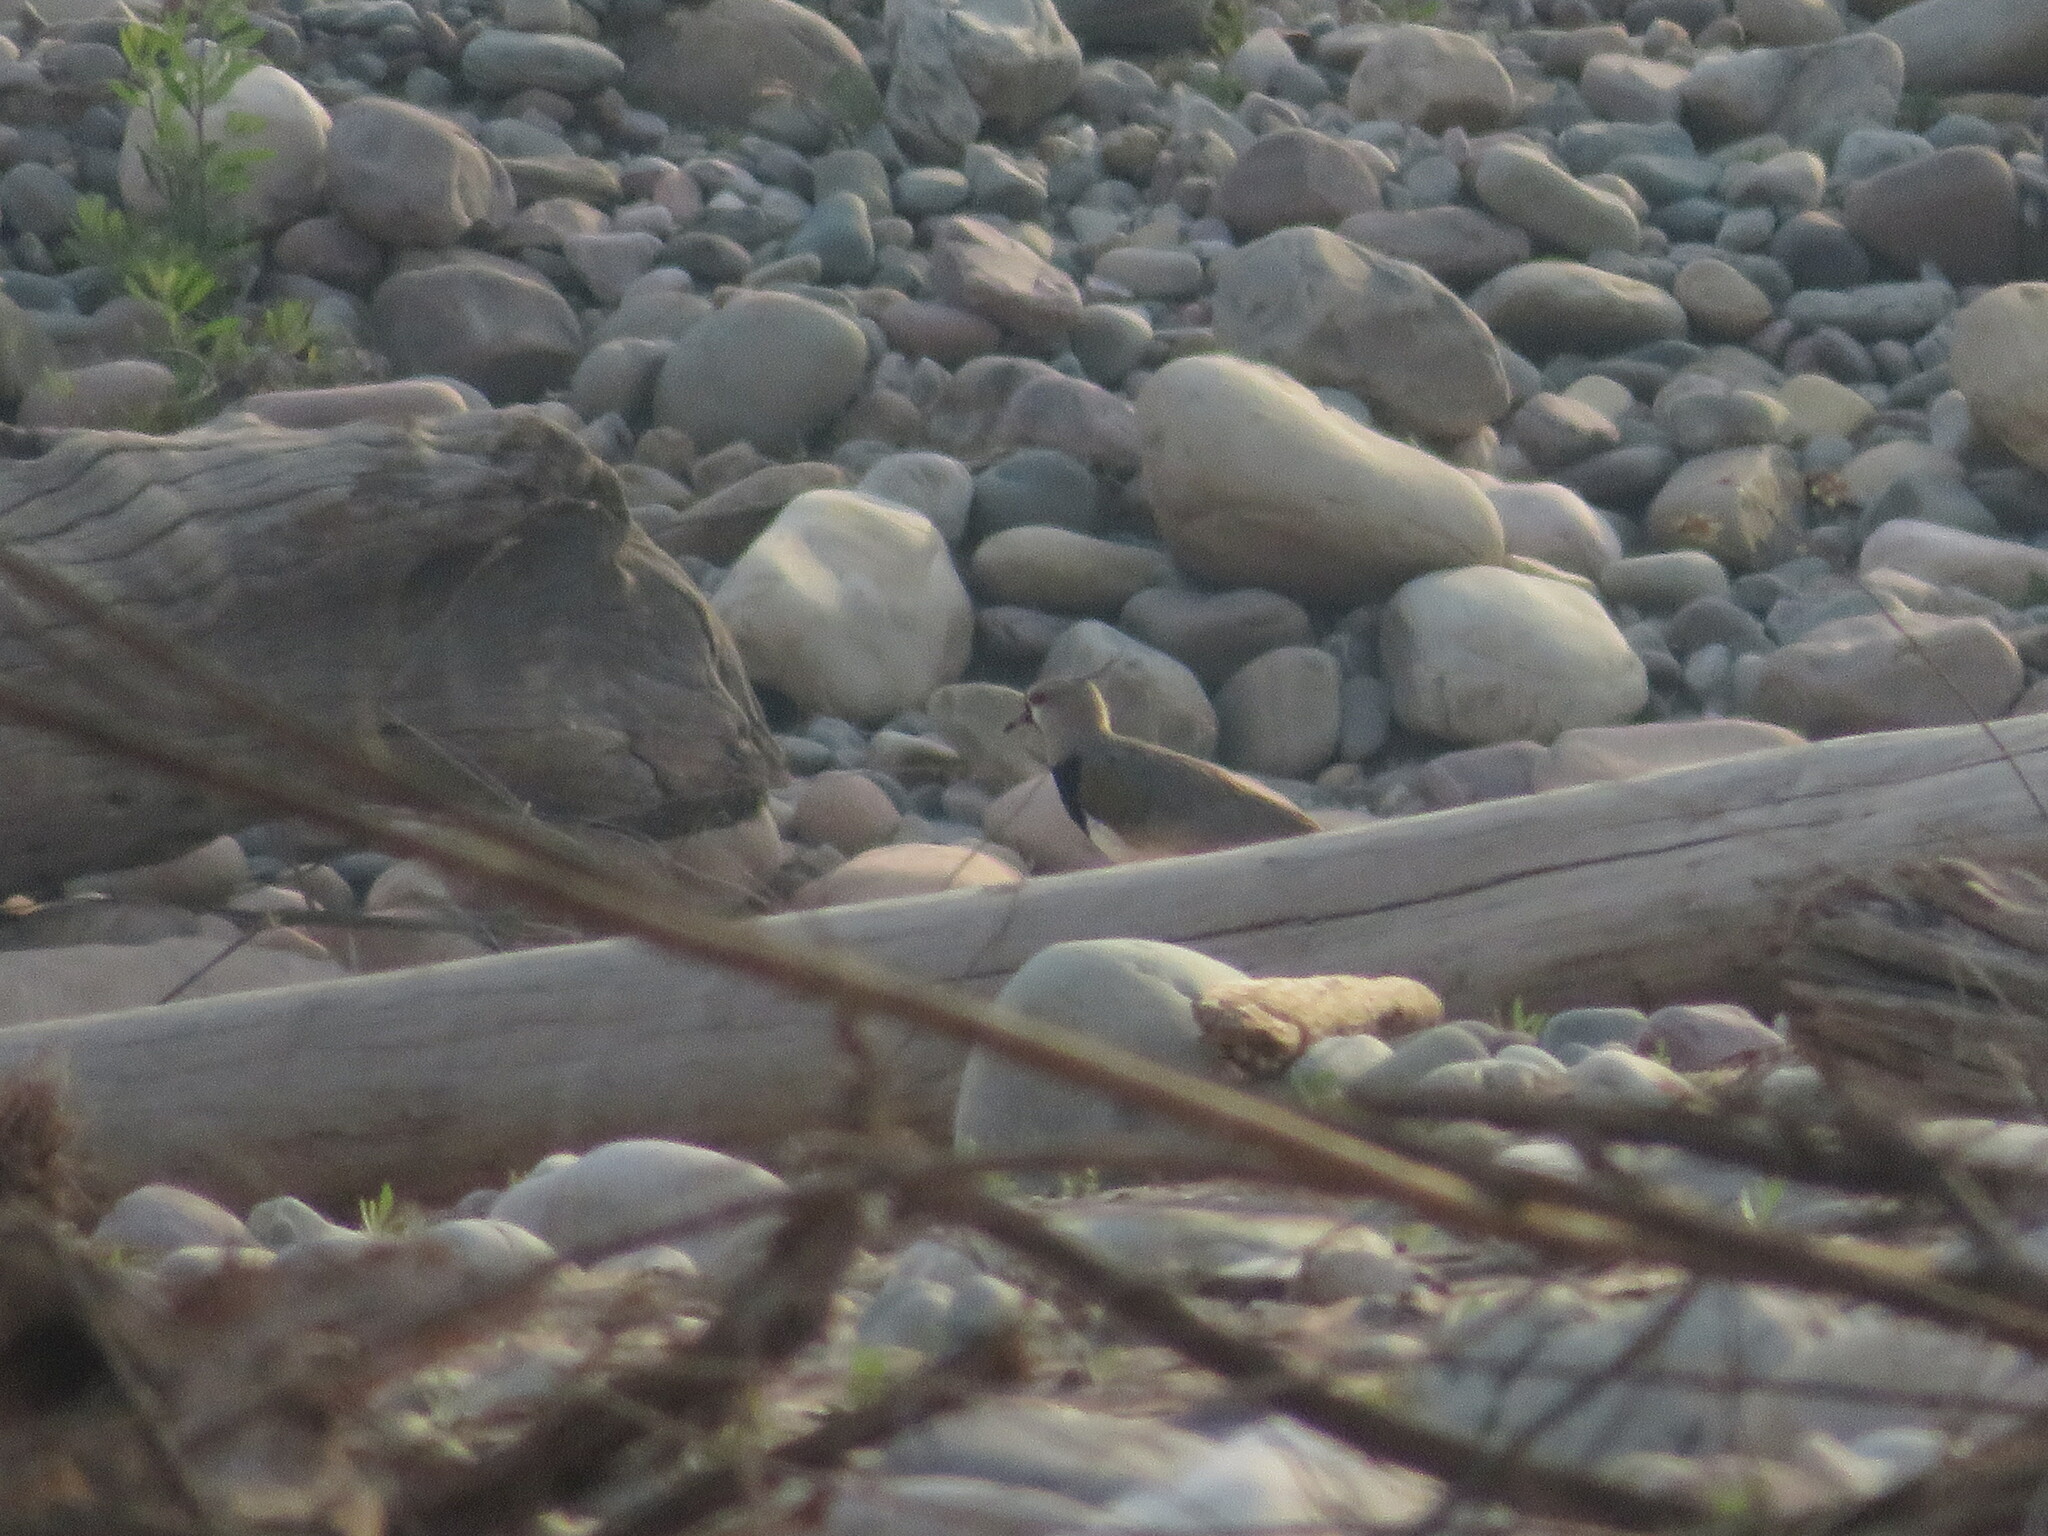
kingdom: Animalia
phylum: Chordata
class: Aves
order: Charadriiformes
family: Charadriidae
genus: Vanellus
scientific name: Vanellus chilensis
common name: Southern lapwing
